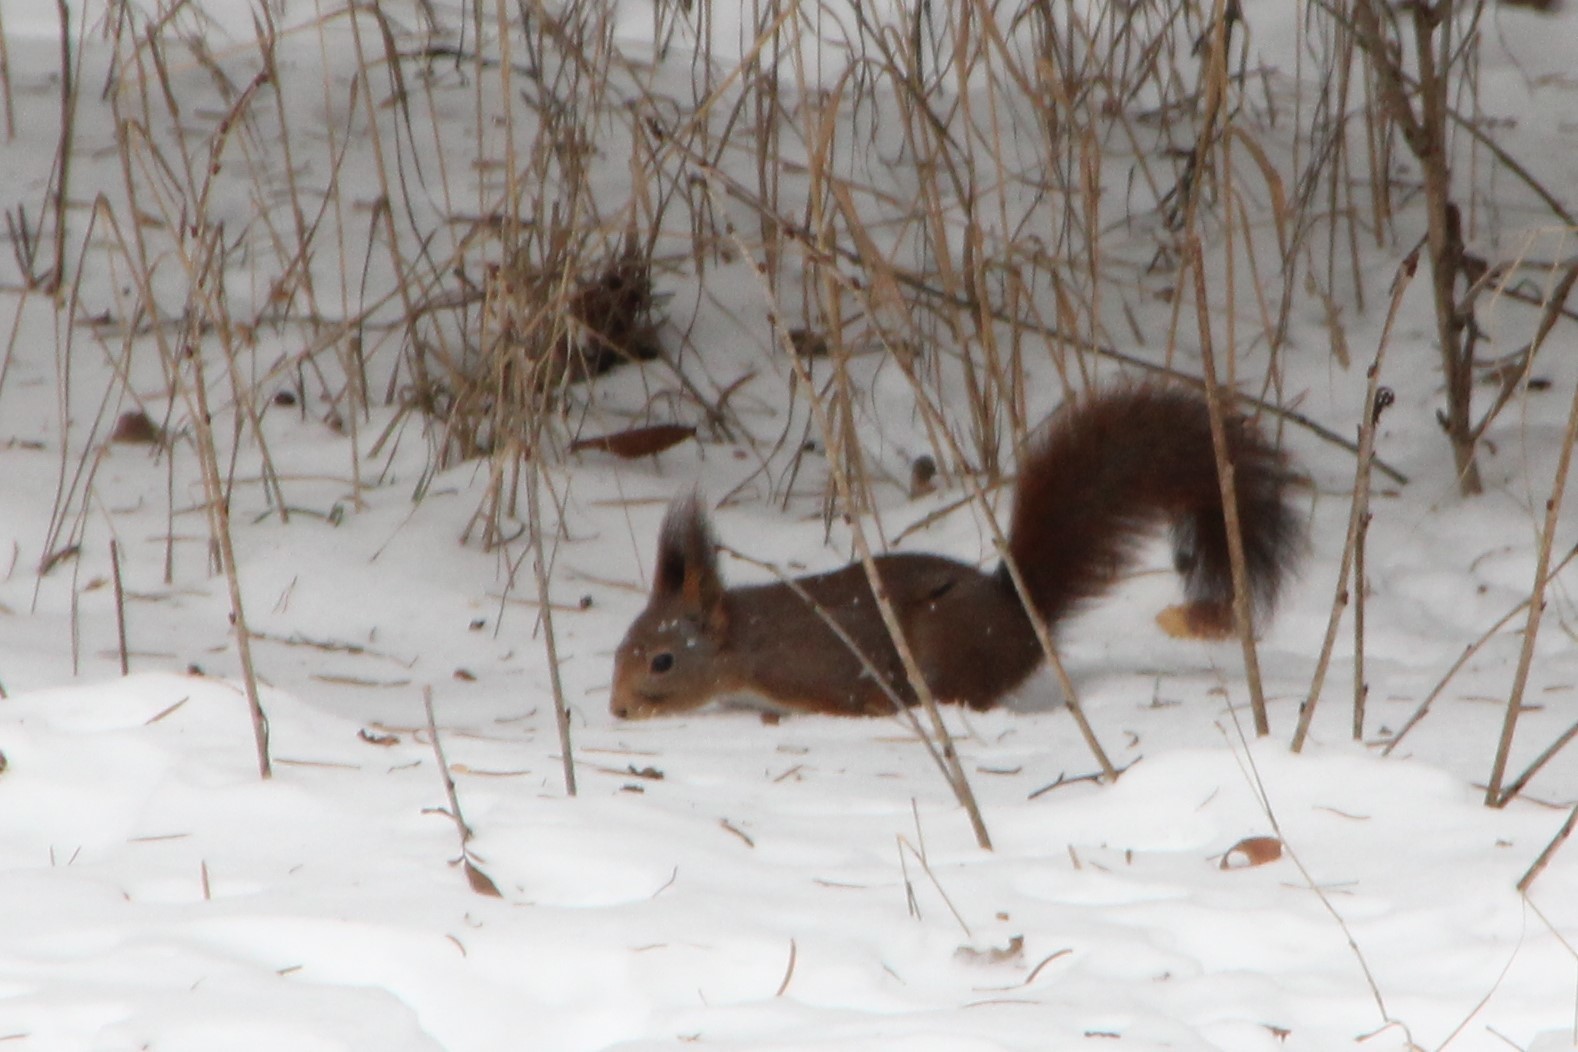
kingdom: Animalia
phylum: Chordata
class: Mammalia
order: Rodentia
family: Sciuridae
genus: Sciurus
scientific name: Sciurus vulgaris
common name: Eurasian red squirrel
